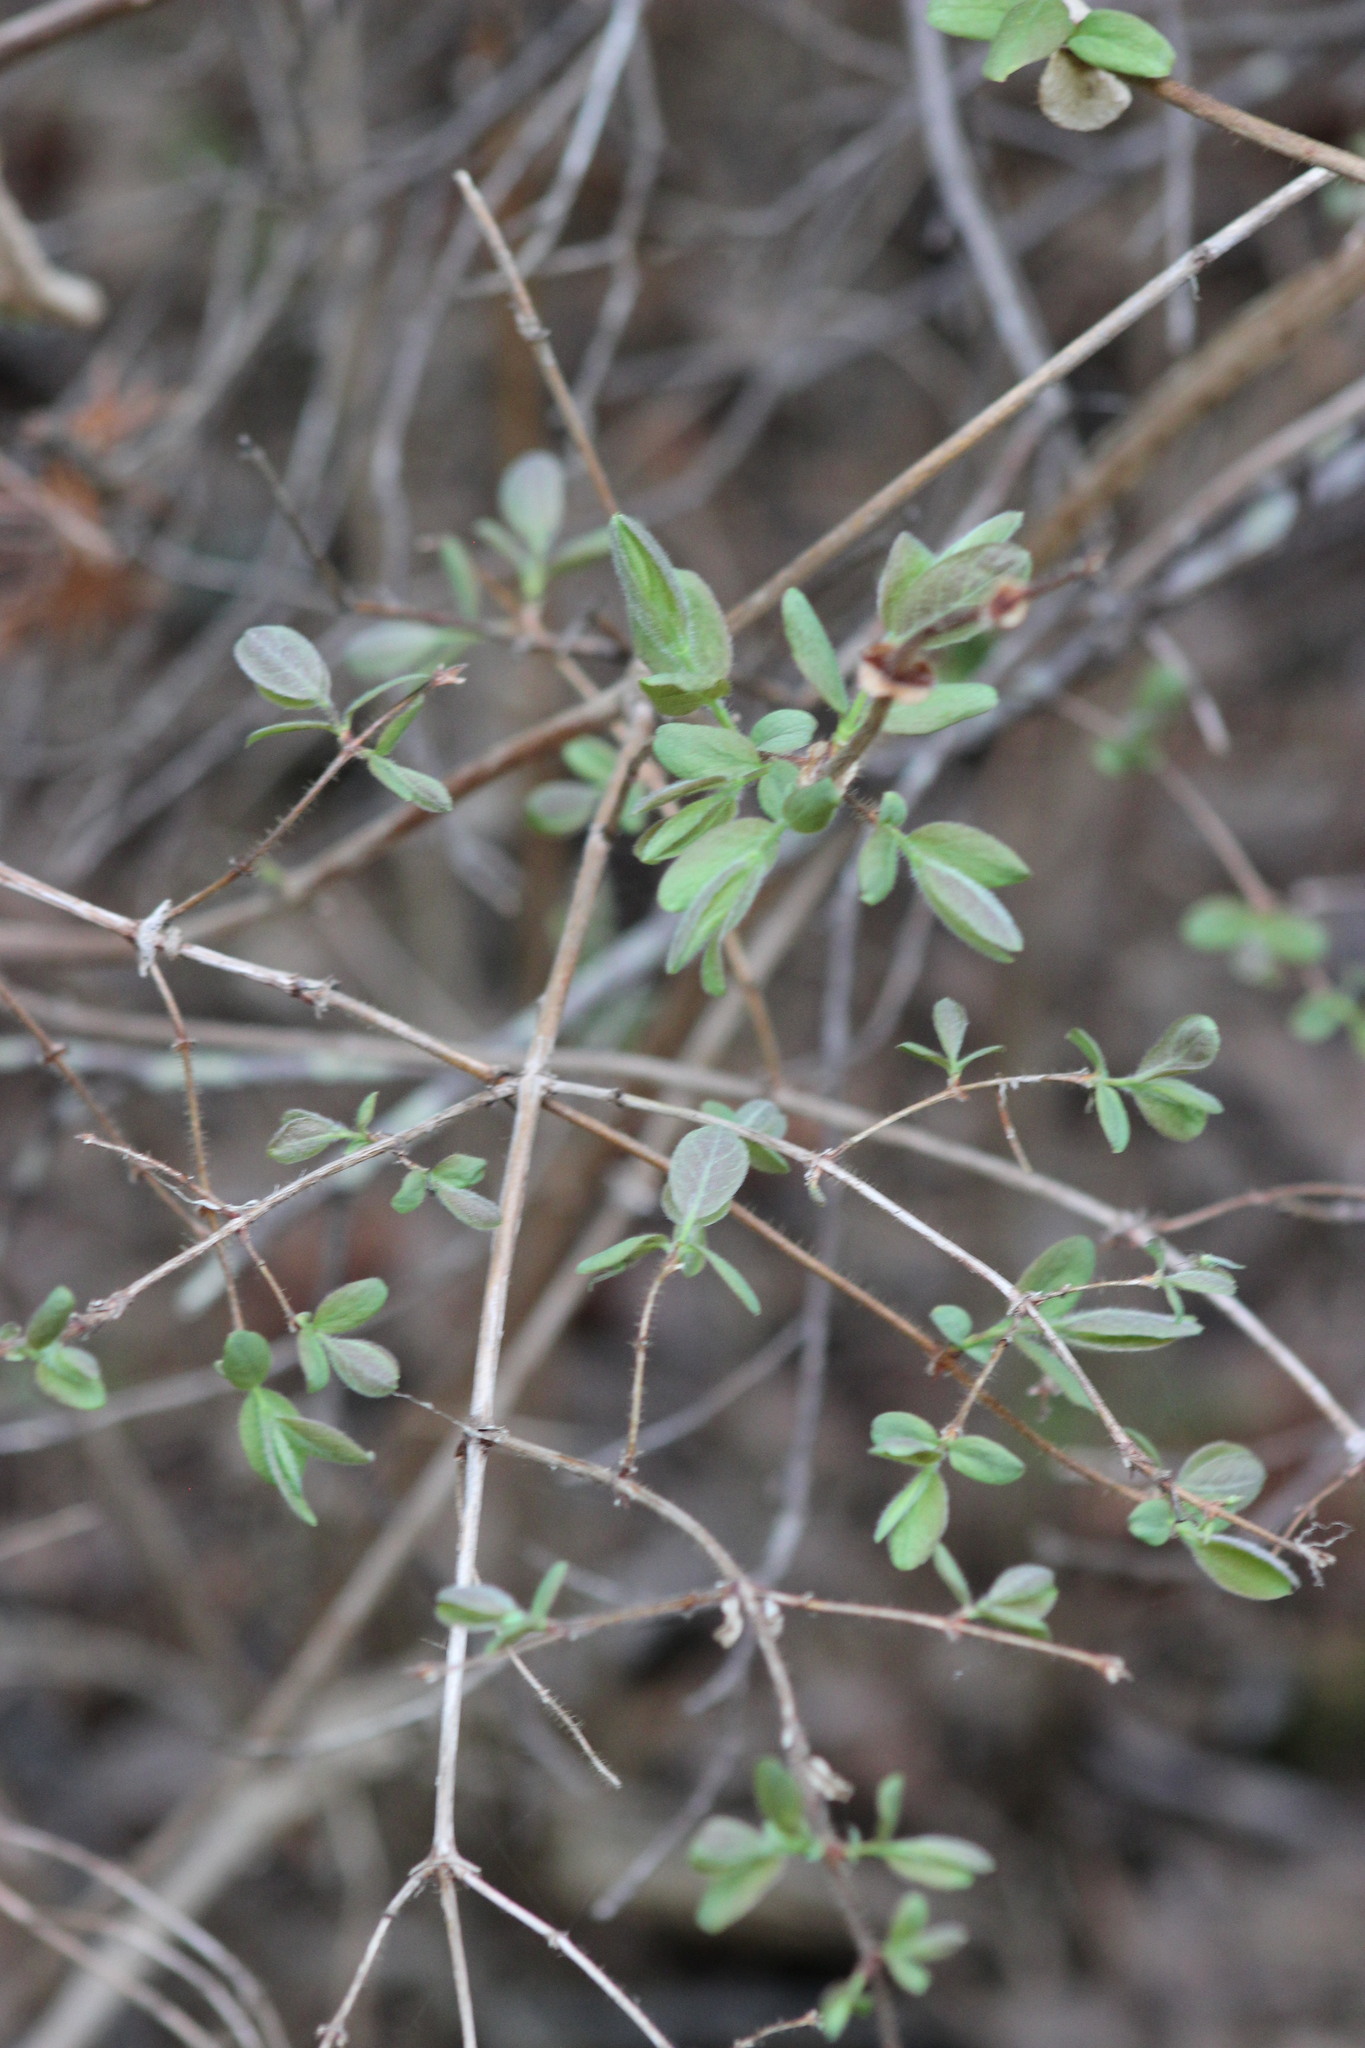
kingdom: Plantae
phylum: Tracheophyta
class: Magnoliopsida
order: Dipsacales
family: Caprifoliaceae
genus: Lonicera
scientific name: Lonicera caerulea
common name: Blue honeysuckle
